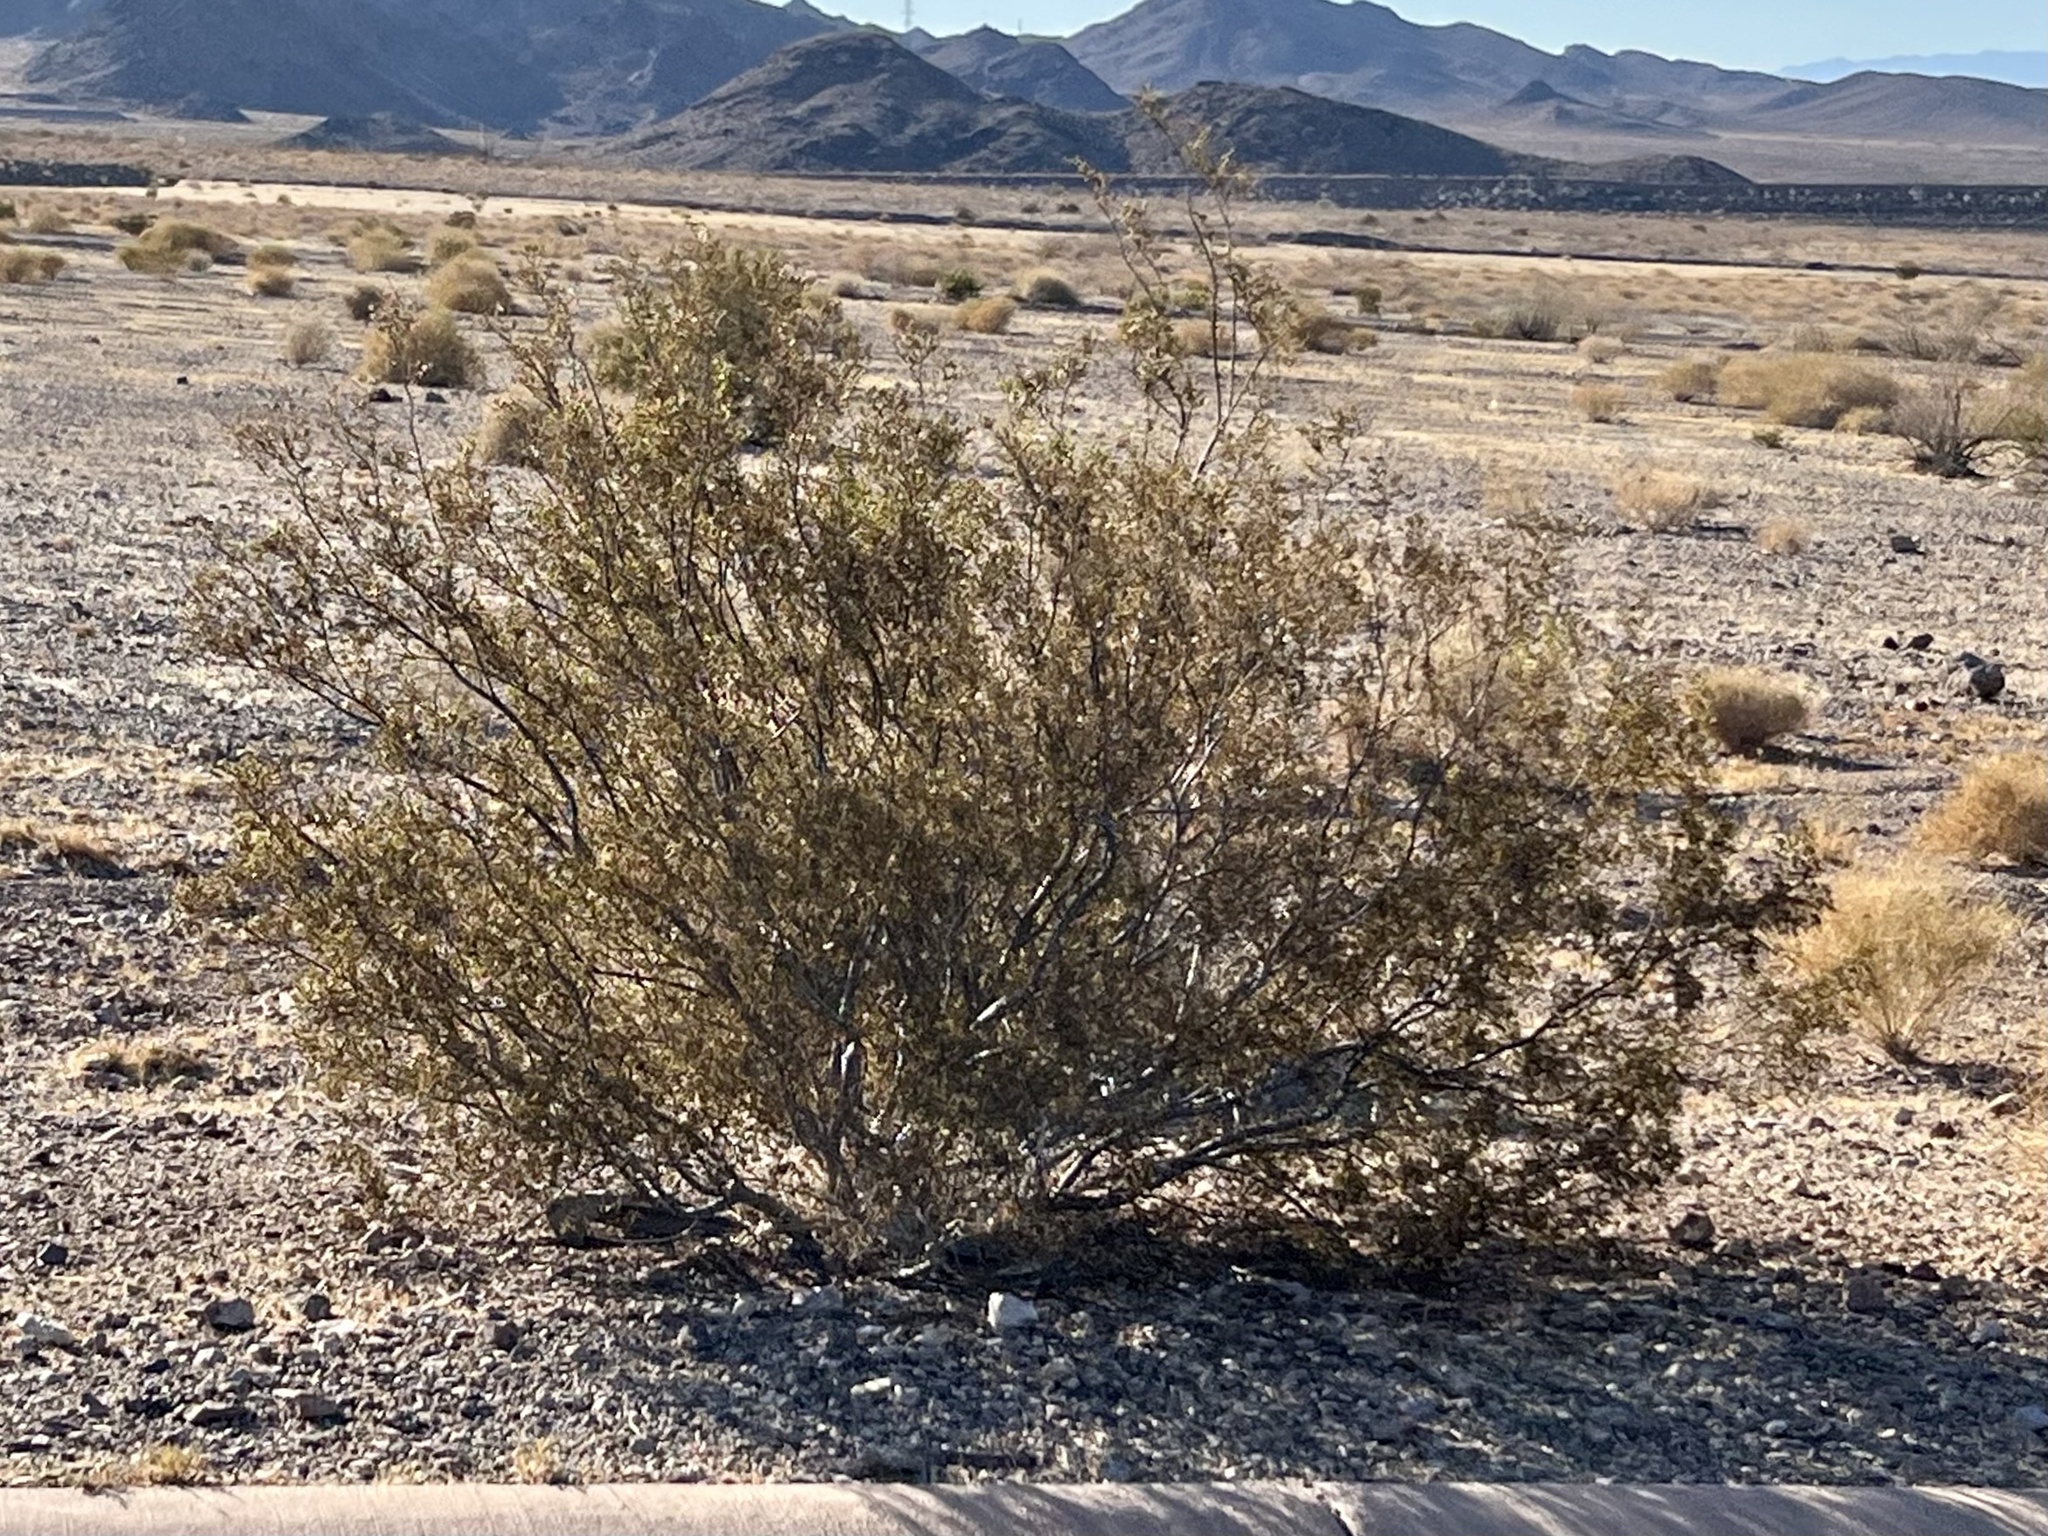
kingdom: Plantae
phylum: Tracheophyta
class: Magnoliopsida
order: Zygophyllales
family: Zygophyllaceae
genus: Larrea
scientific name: Larrea tridentata
